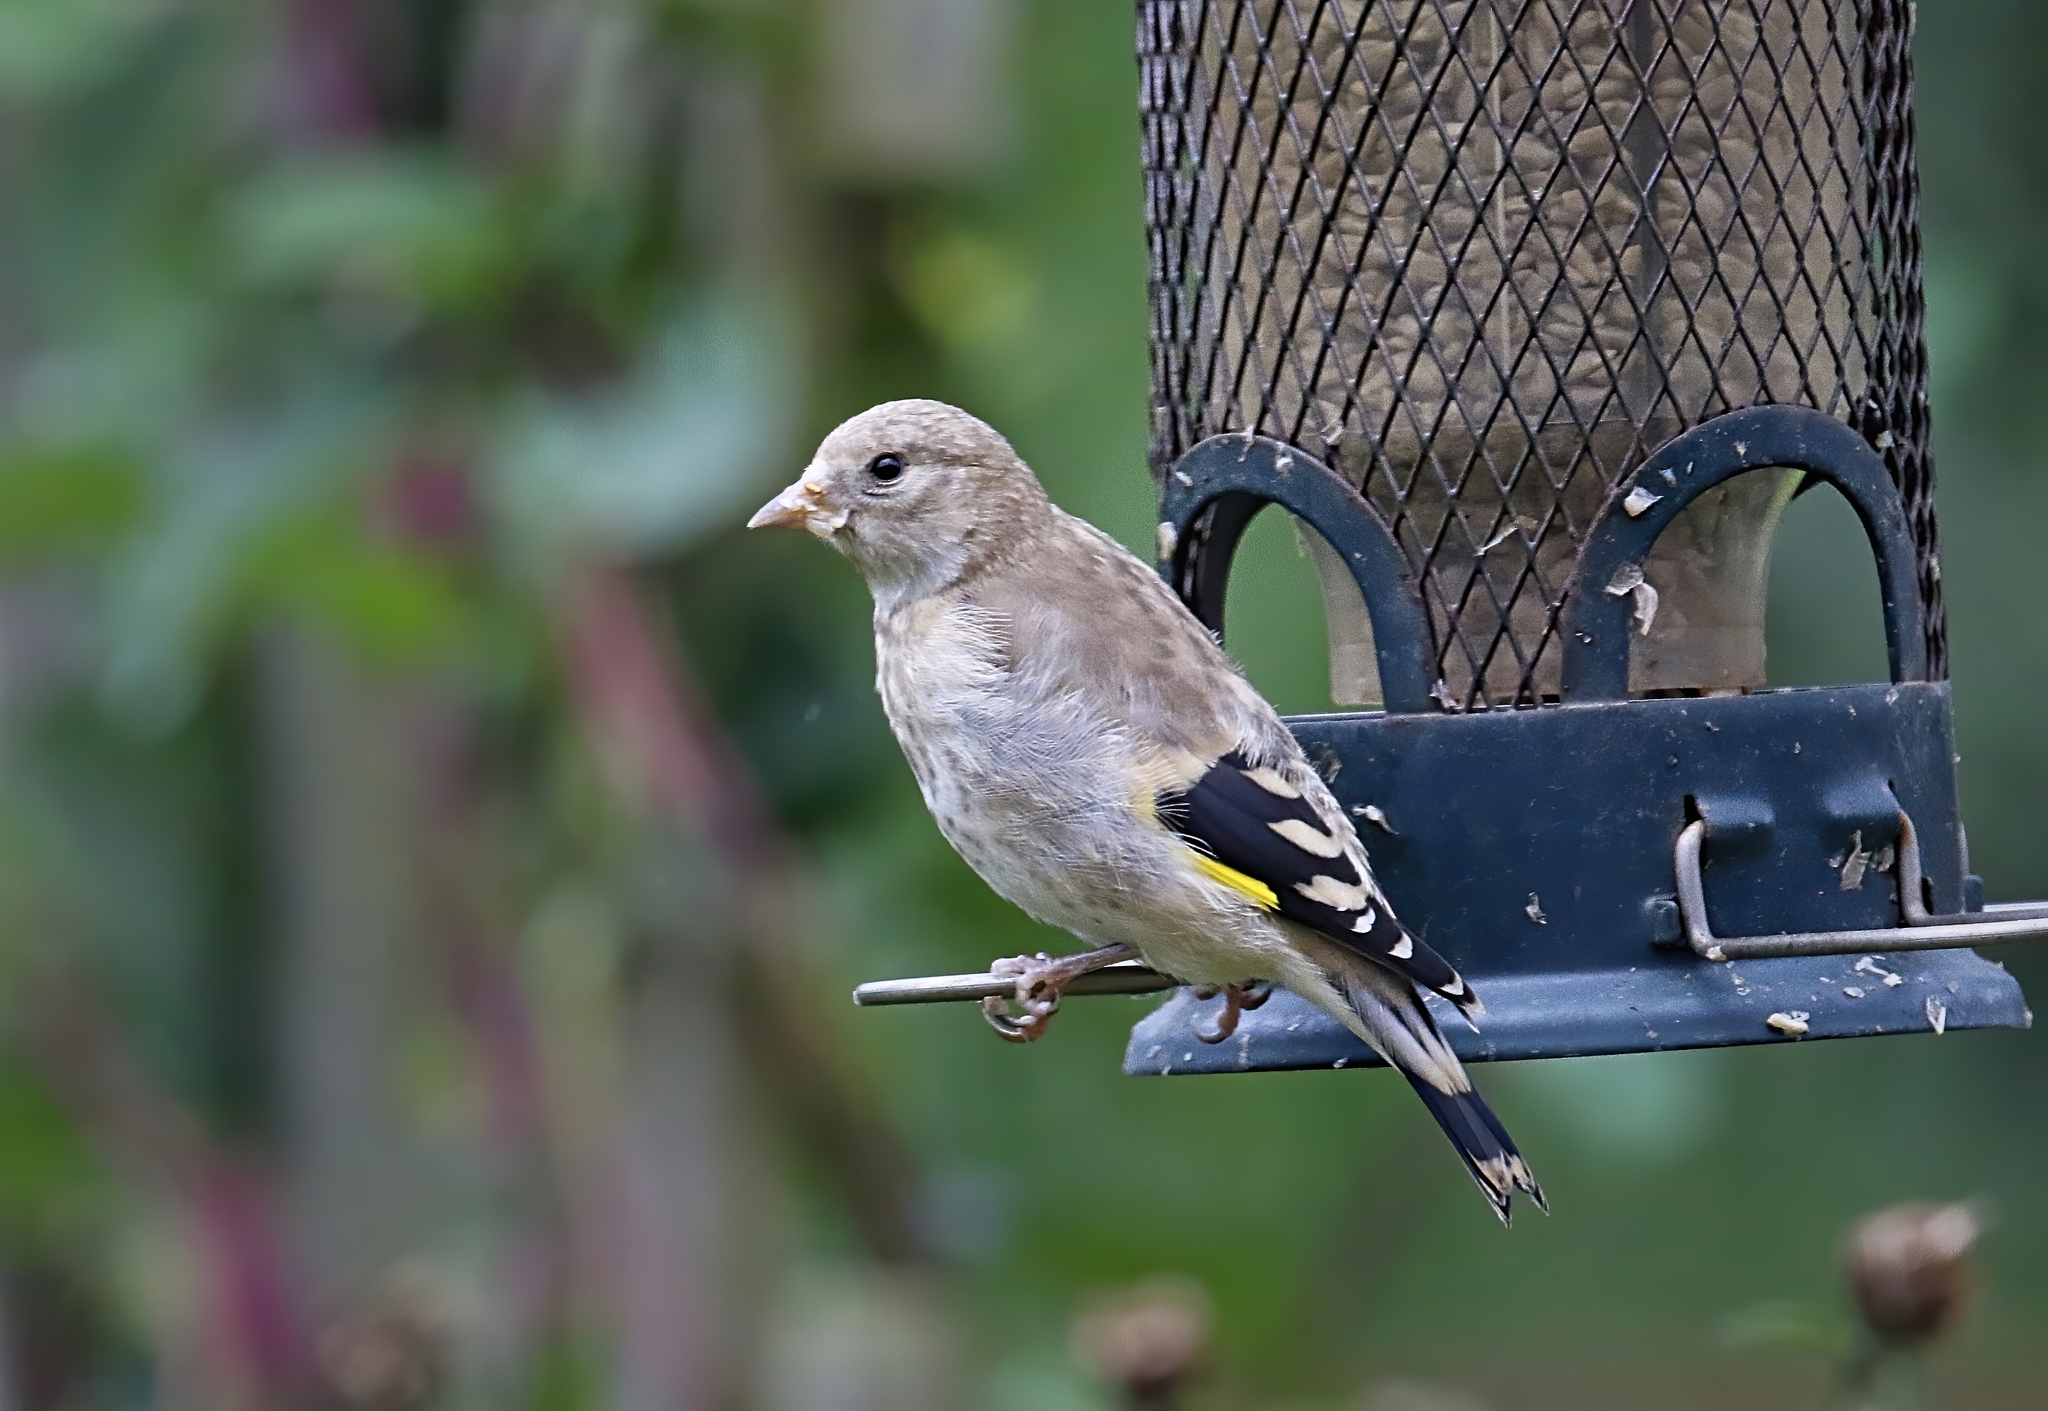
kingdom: Animalia
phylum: Chordata
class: Aves
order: Passeriformes
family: Fringillidae
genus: Carduelis
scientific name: Carduelis carduelis
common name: European goldfinch
